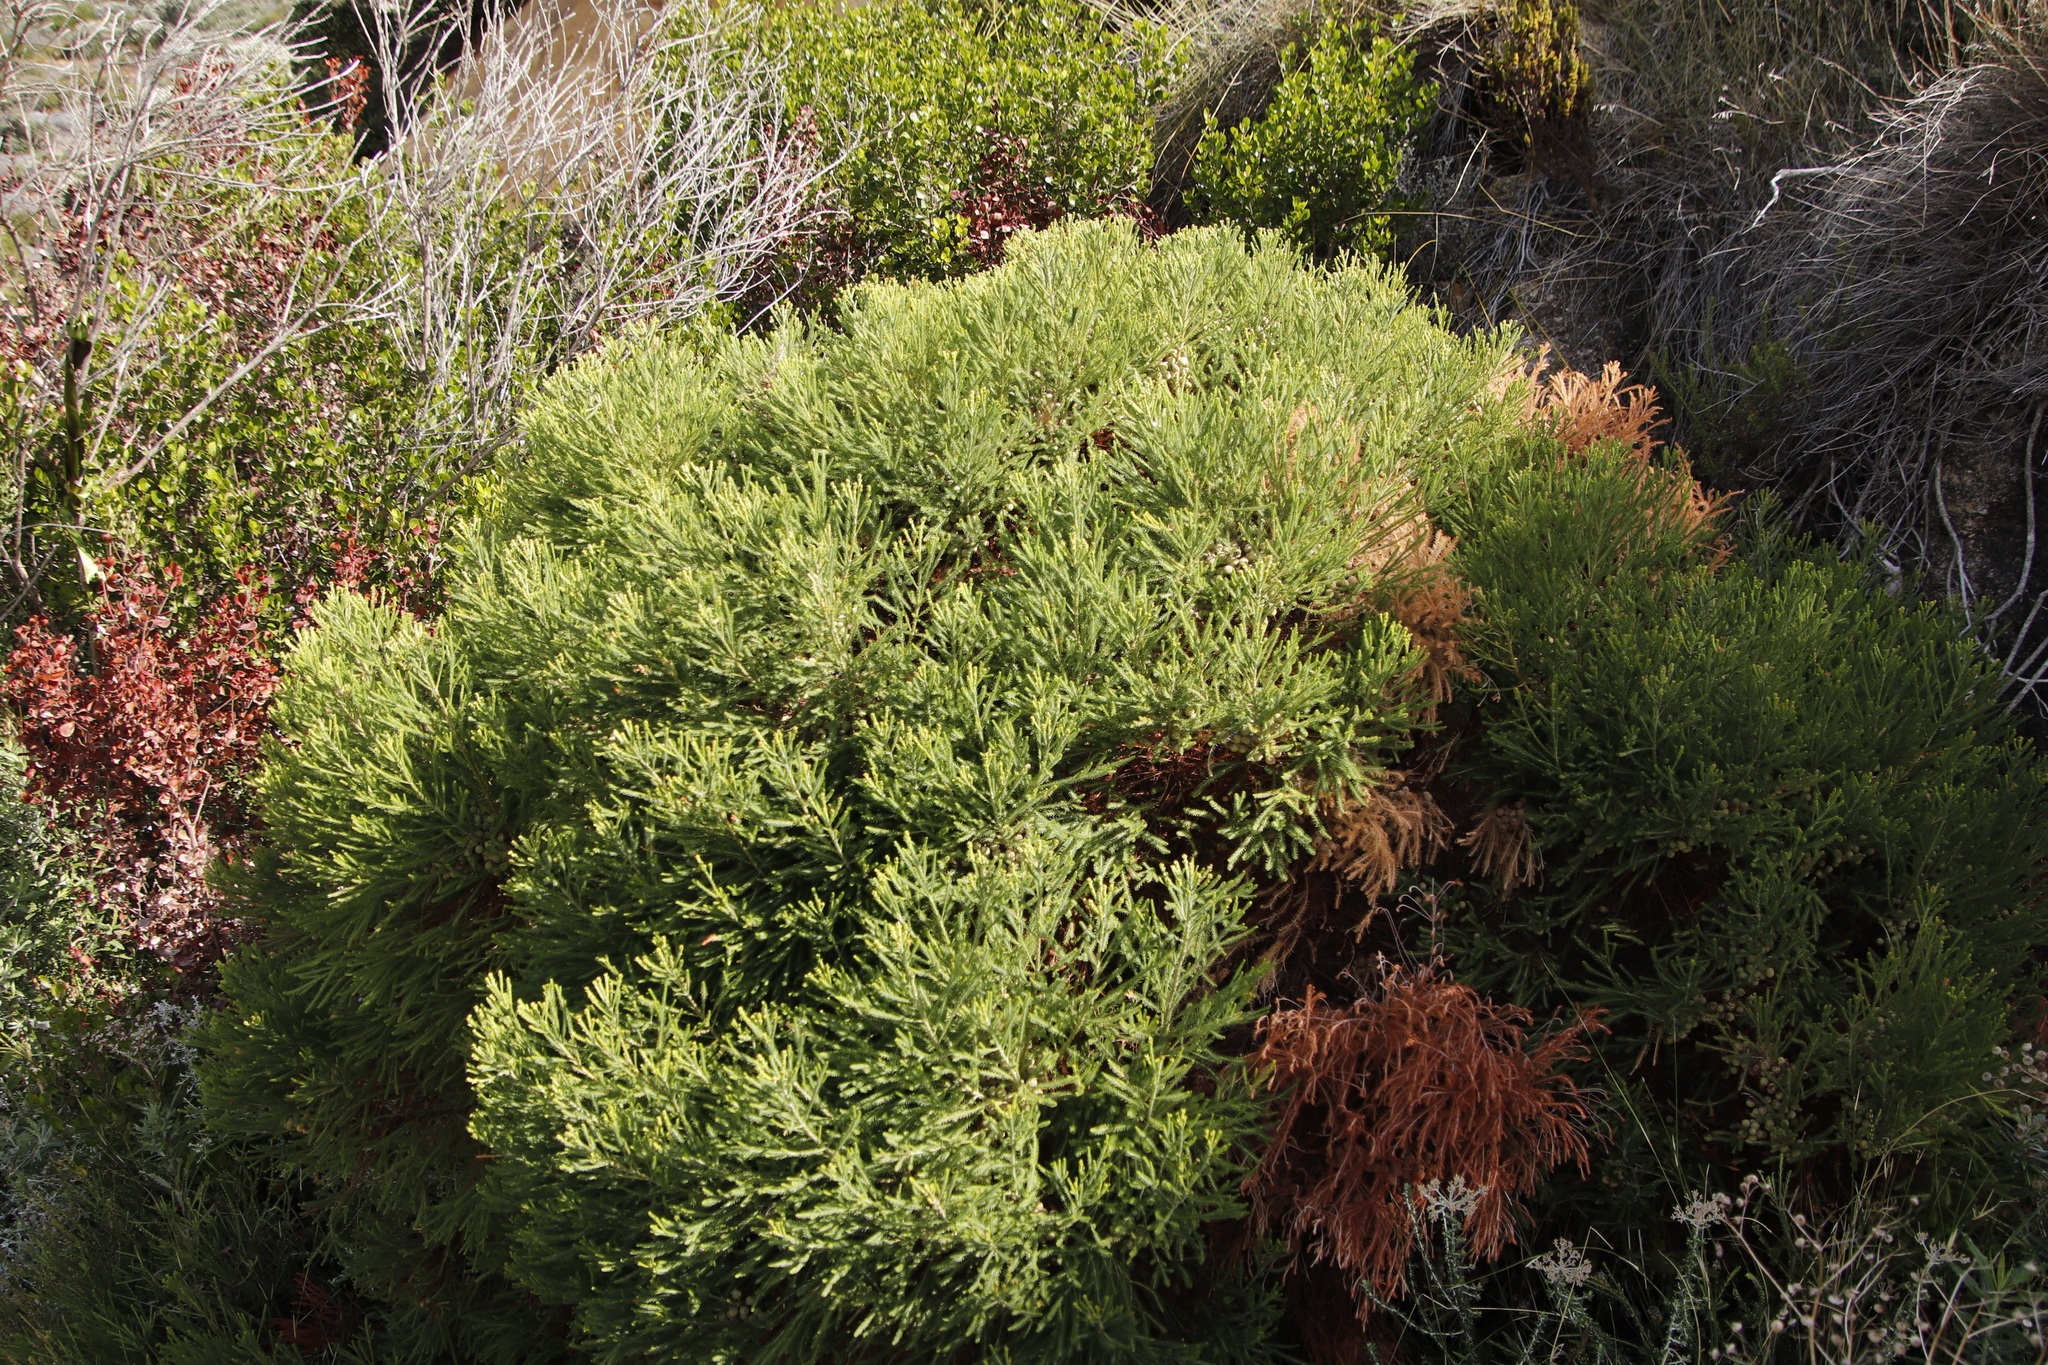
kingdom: Plantae
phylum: Tracheophyta
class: Magnoliopsida
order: Bruniales
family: Bruniaceae
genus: Berzelia
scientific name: Berzelia lanuginosa
